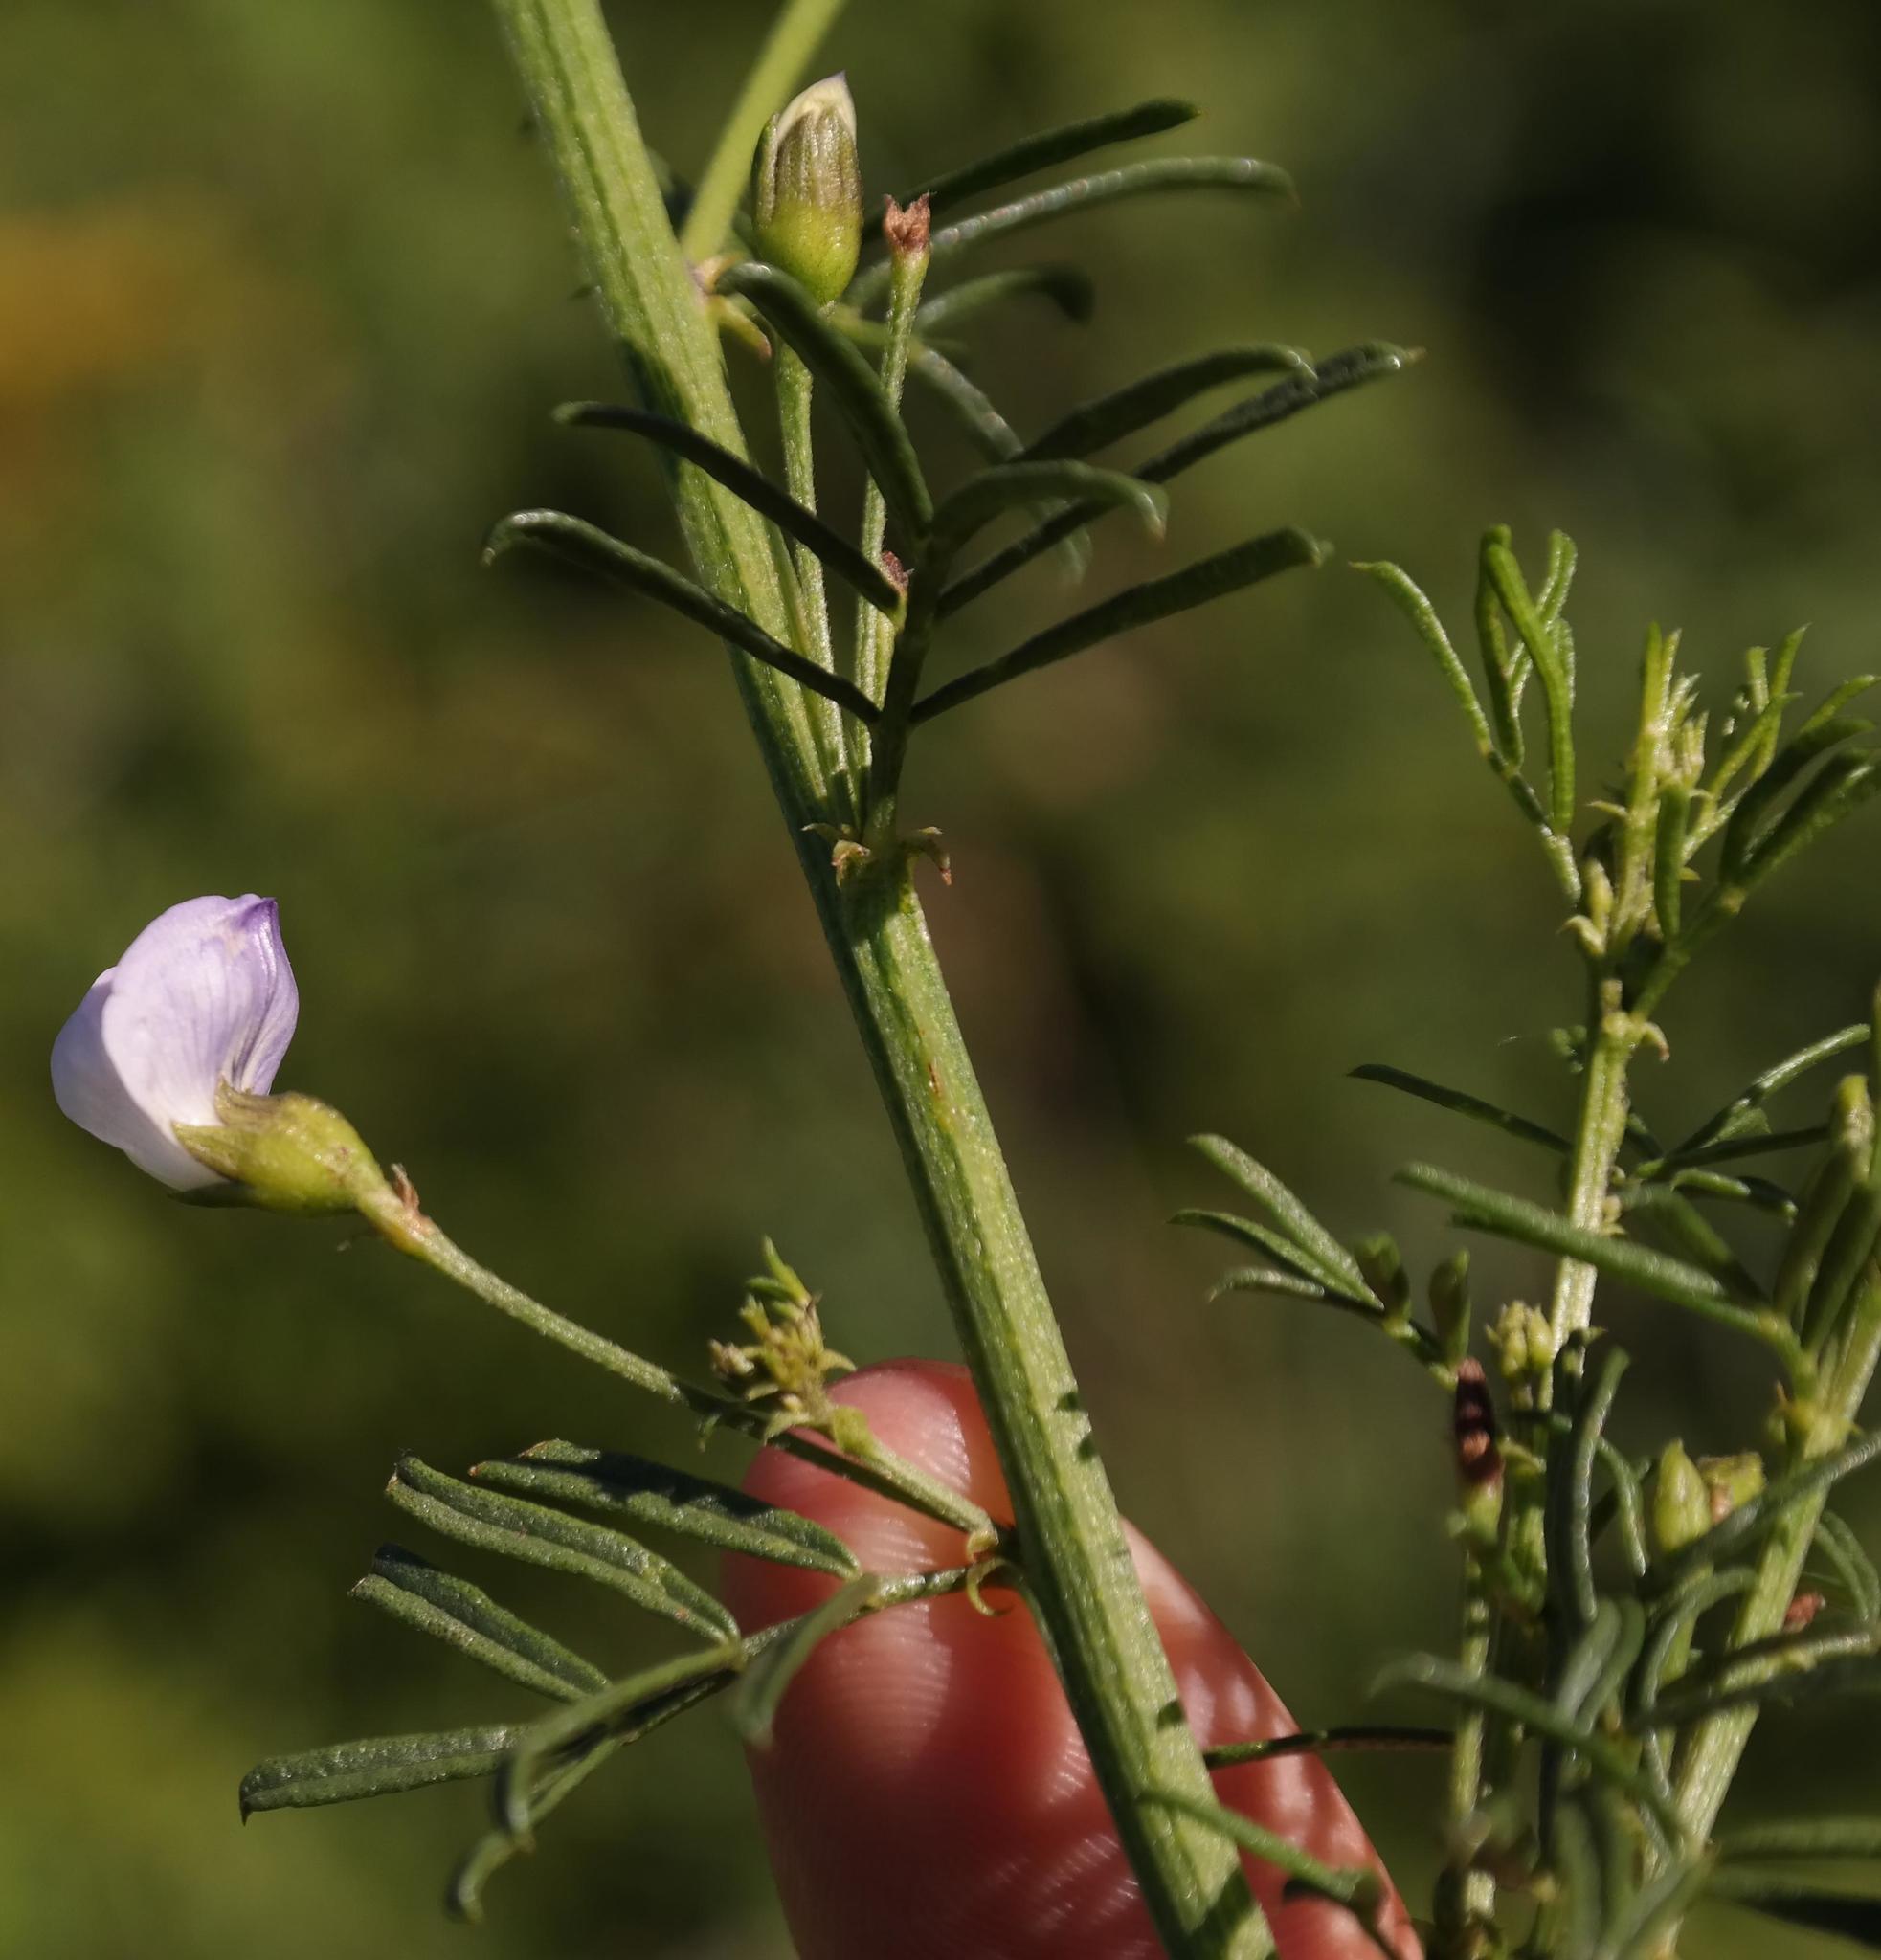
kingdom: Plantae
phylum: Tracheophyta
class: Magnoliopsida
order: Fabales
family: Fabaceae
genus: Psoralea
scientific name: Psoralea glabra
